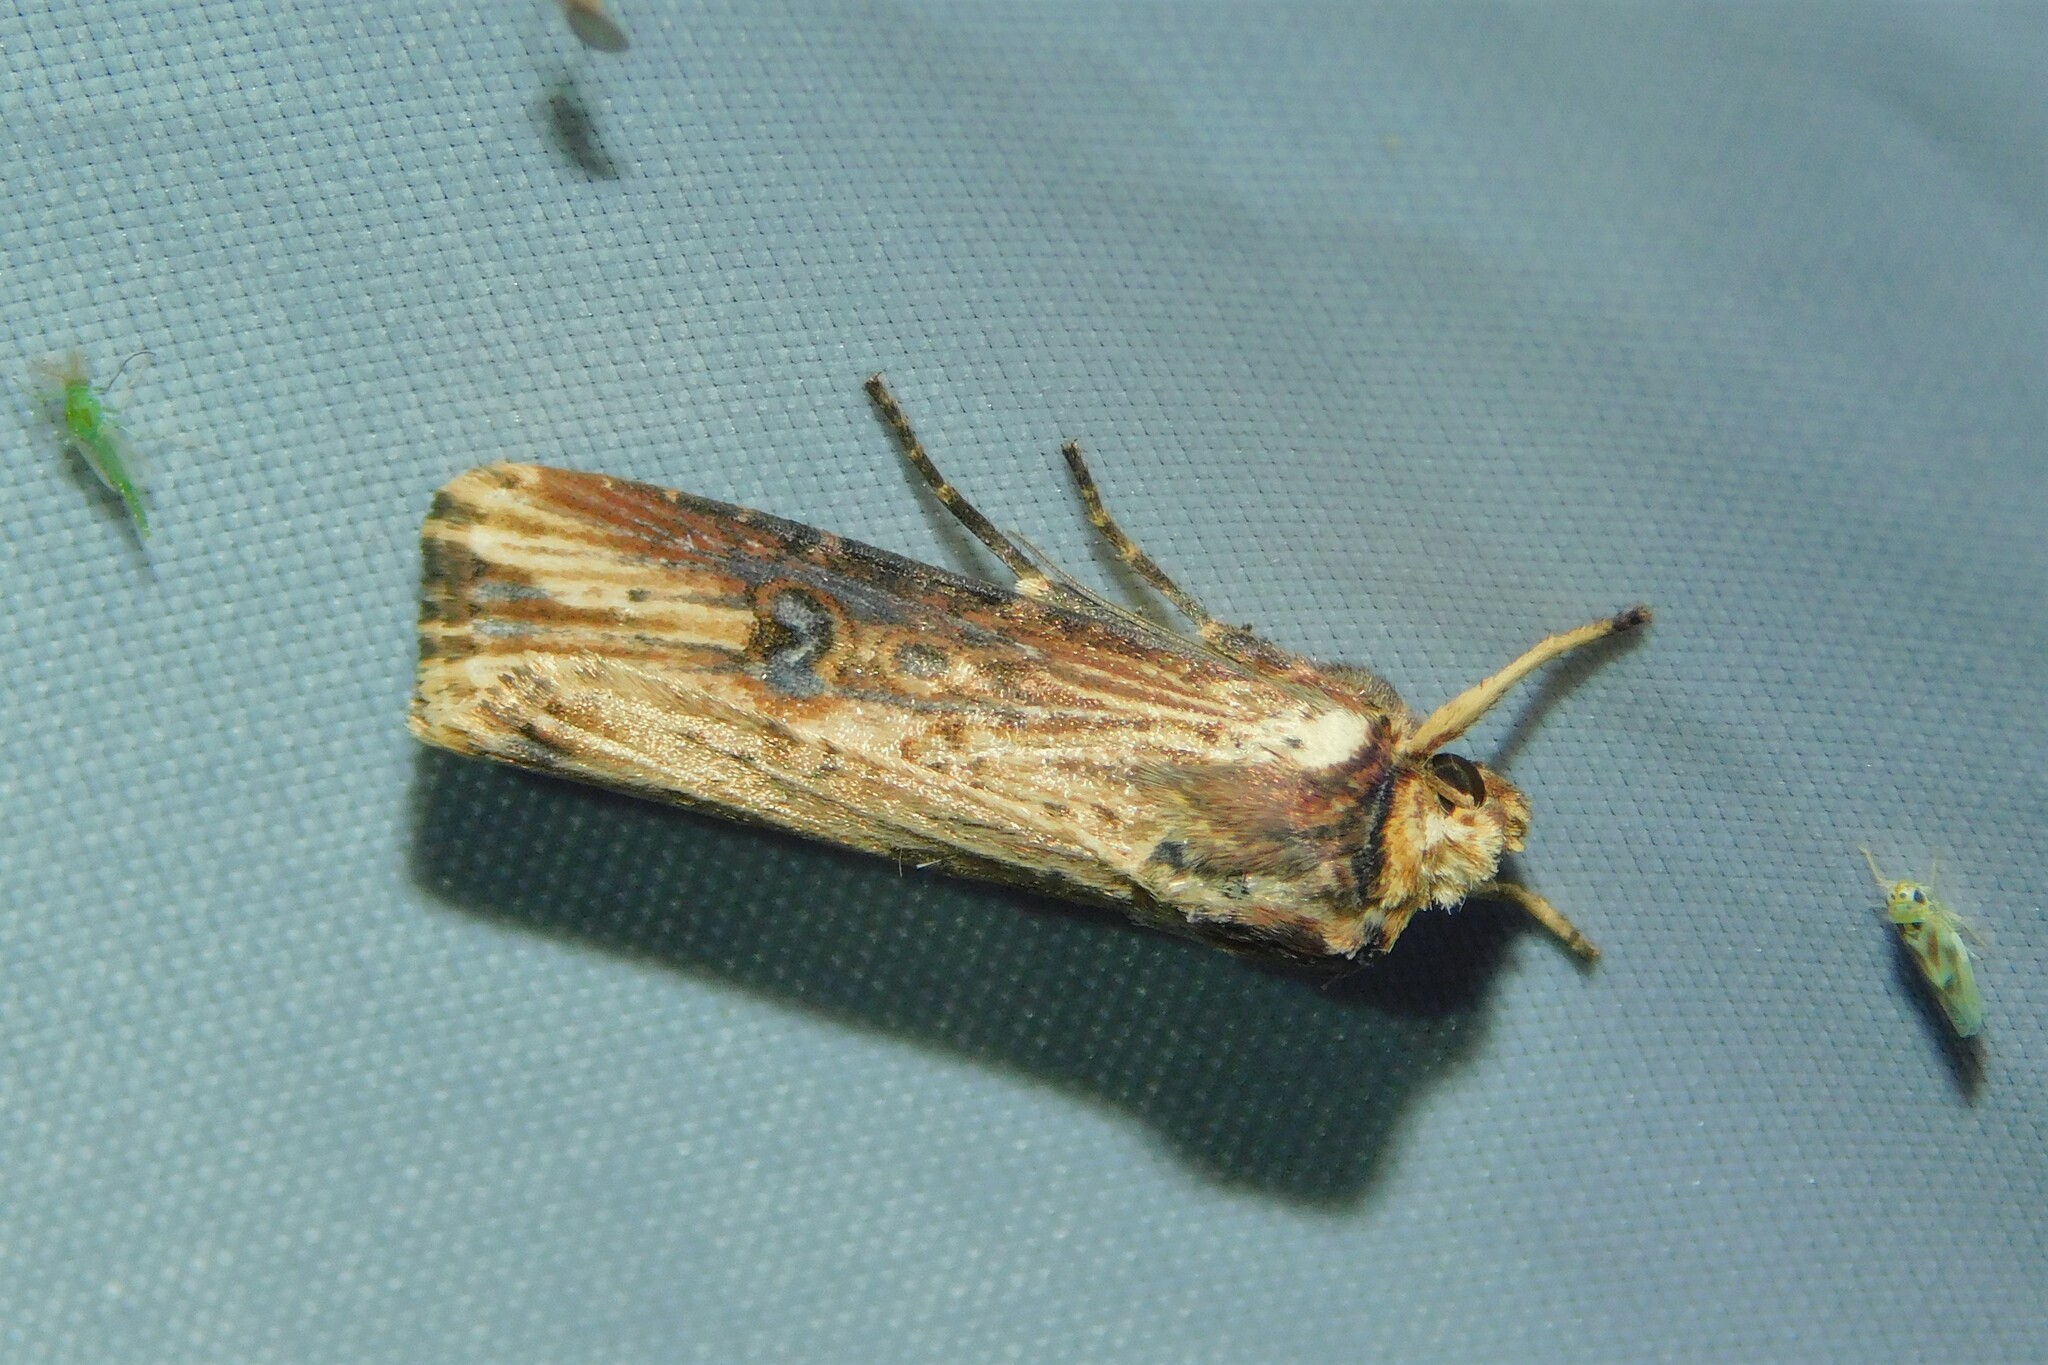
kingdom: Animalia
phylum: Arthropoda
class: Insecta
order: Lepidoptera
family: Noctuidae
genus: Axylia
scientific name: Axylia putris
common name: Flame
